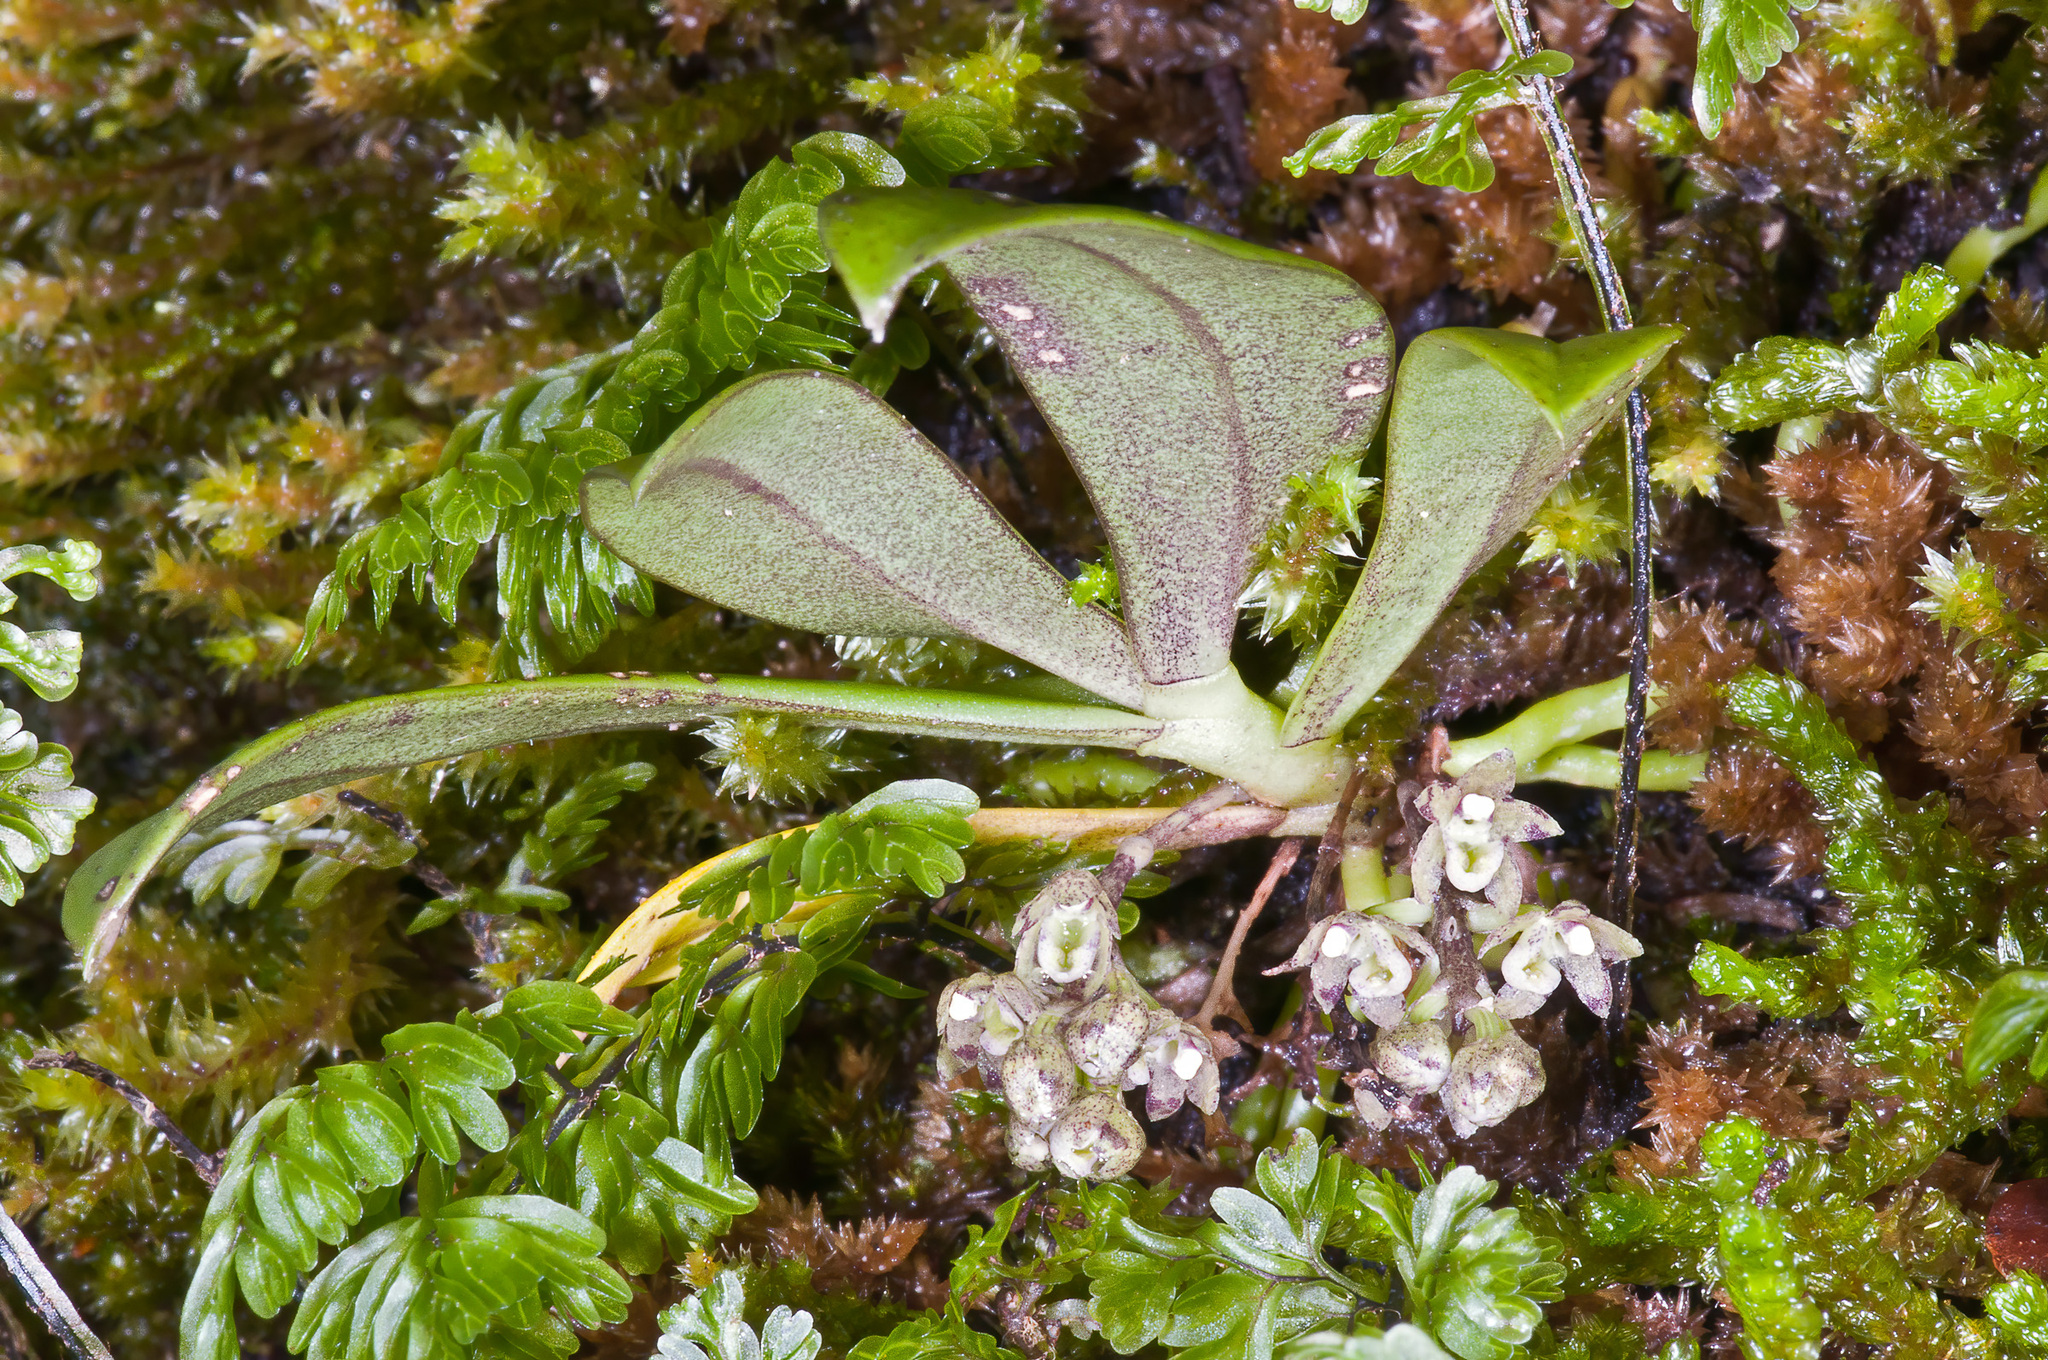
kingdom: Plantae
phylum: Tracheophyta
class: Liliopsida
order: Asparagales
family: Orchidaceae
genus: Drymoanthus
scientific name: Drymoanthus adversus
